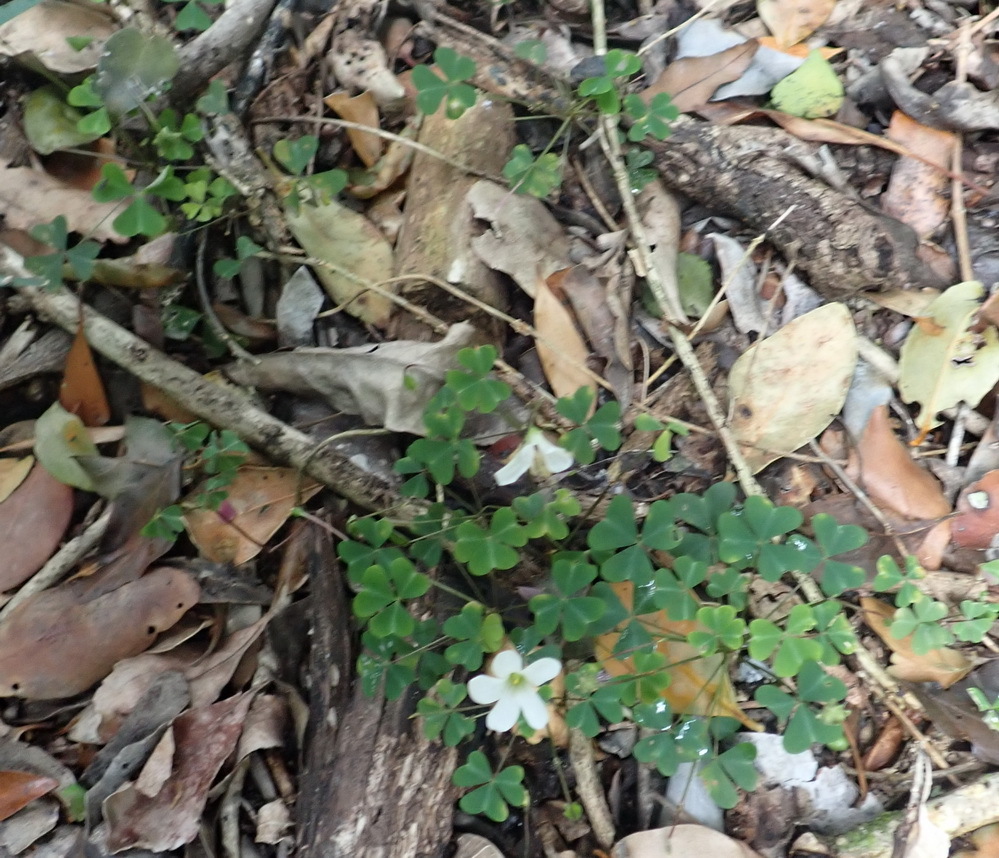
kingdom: Plantae
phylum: Tracheophyta
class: Magnoliopsida
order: Oxalidales
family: Oxalidaceae
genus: Oxalis
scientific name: Oxalis incarnata
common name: Pale pink-sorrel
